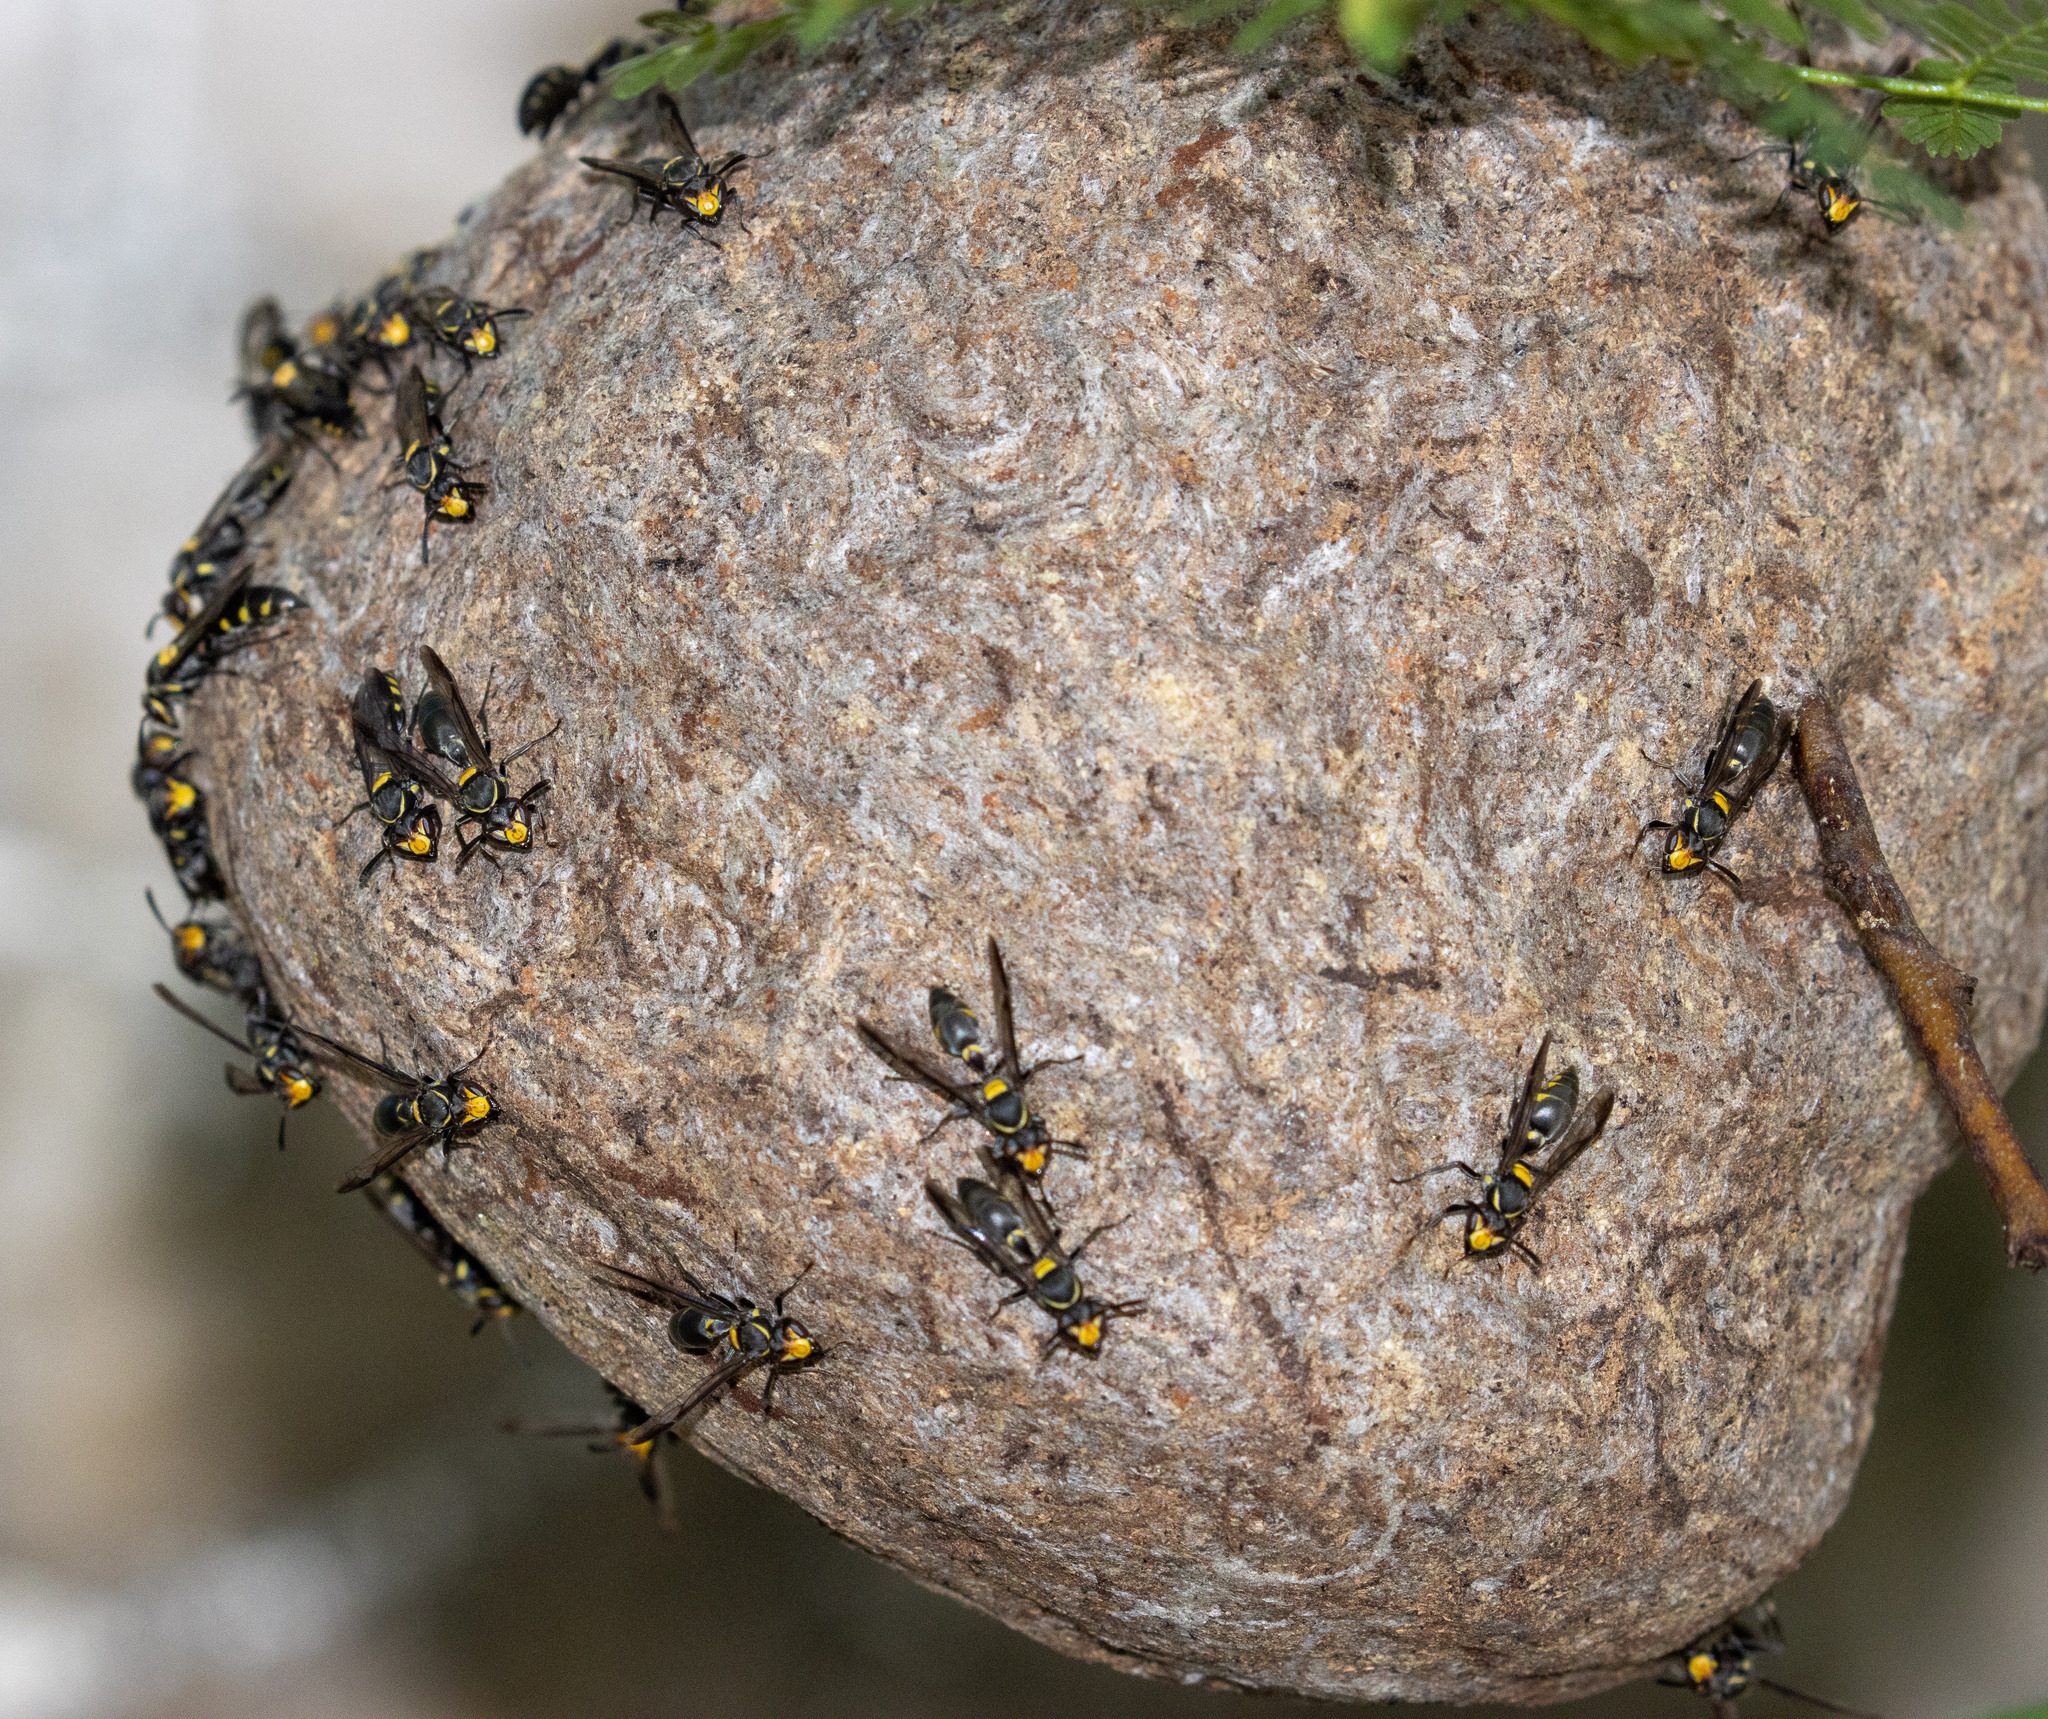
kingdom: Animalia
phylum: Arthropoda
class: Insecta
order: Hymenoptera
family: Eumenidae
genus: Polybia
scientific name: Polybia ruficeps
